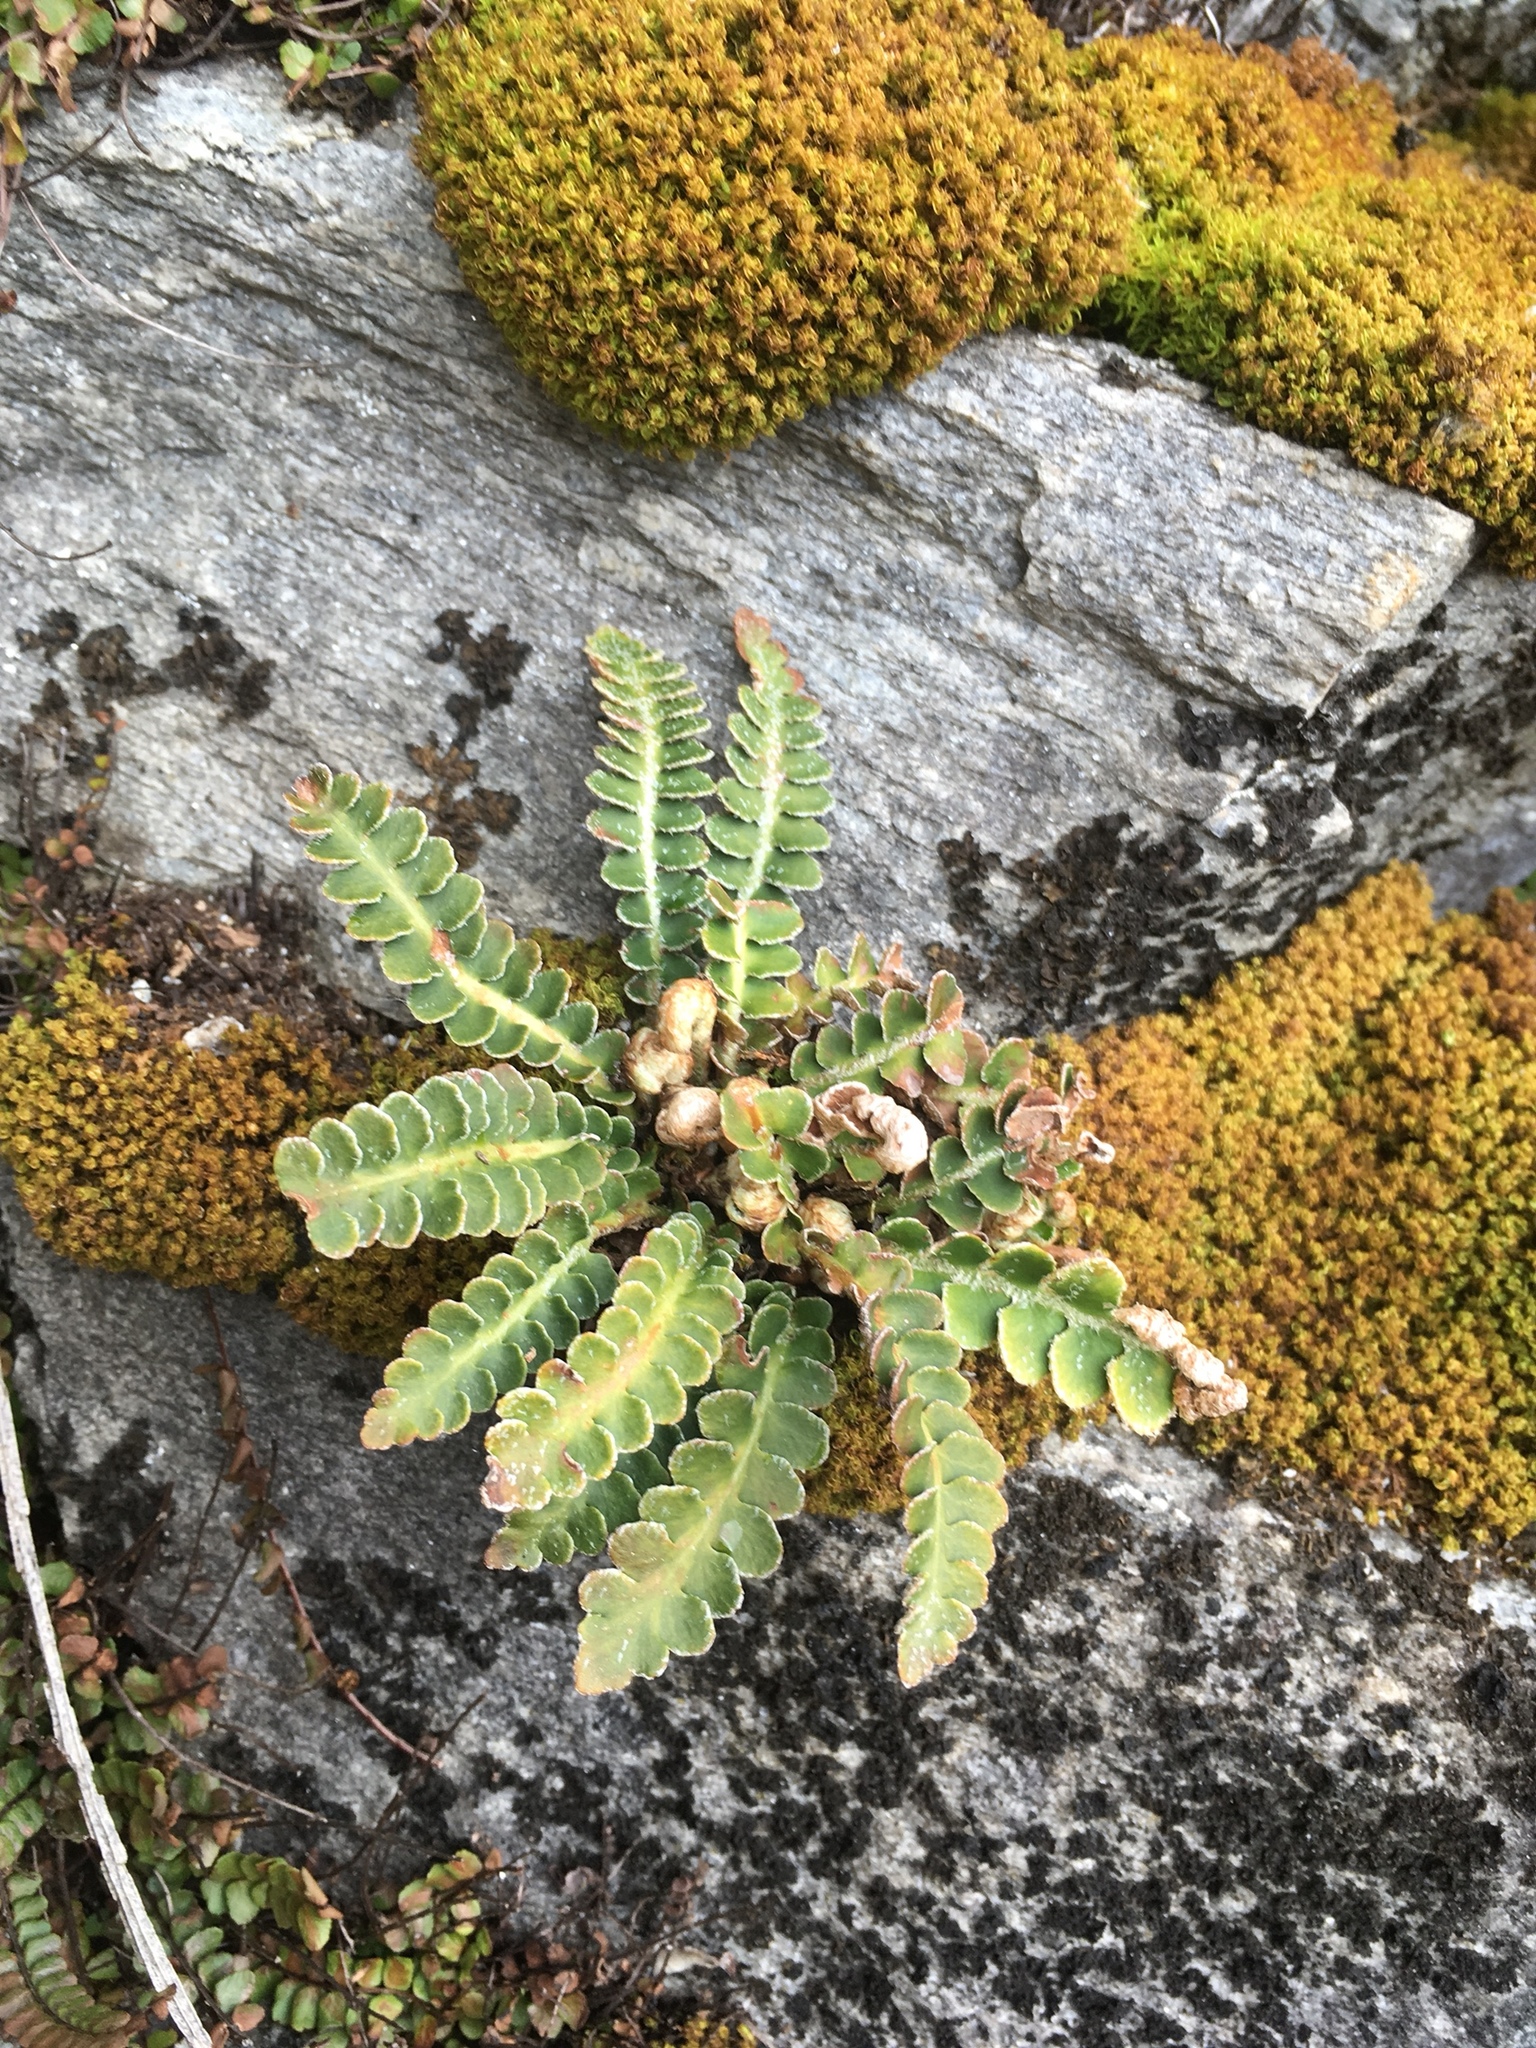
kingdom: Plantae
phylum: Tracheophyta
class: Polypodiopsida
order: Polypodiales
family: Aspleniaceae
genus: Asplenium
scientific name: Asplenium ceterach
